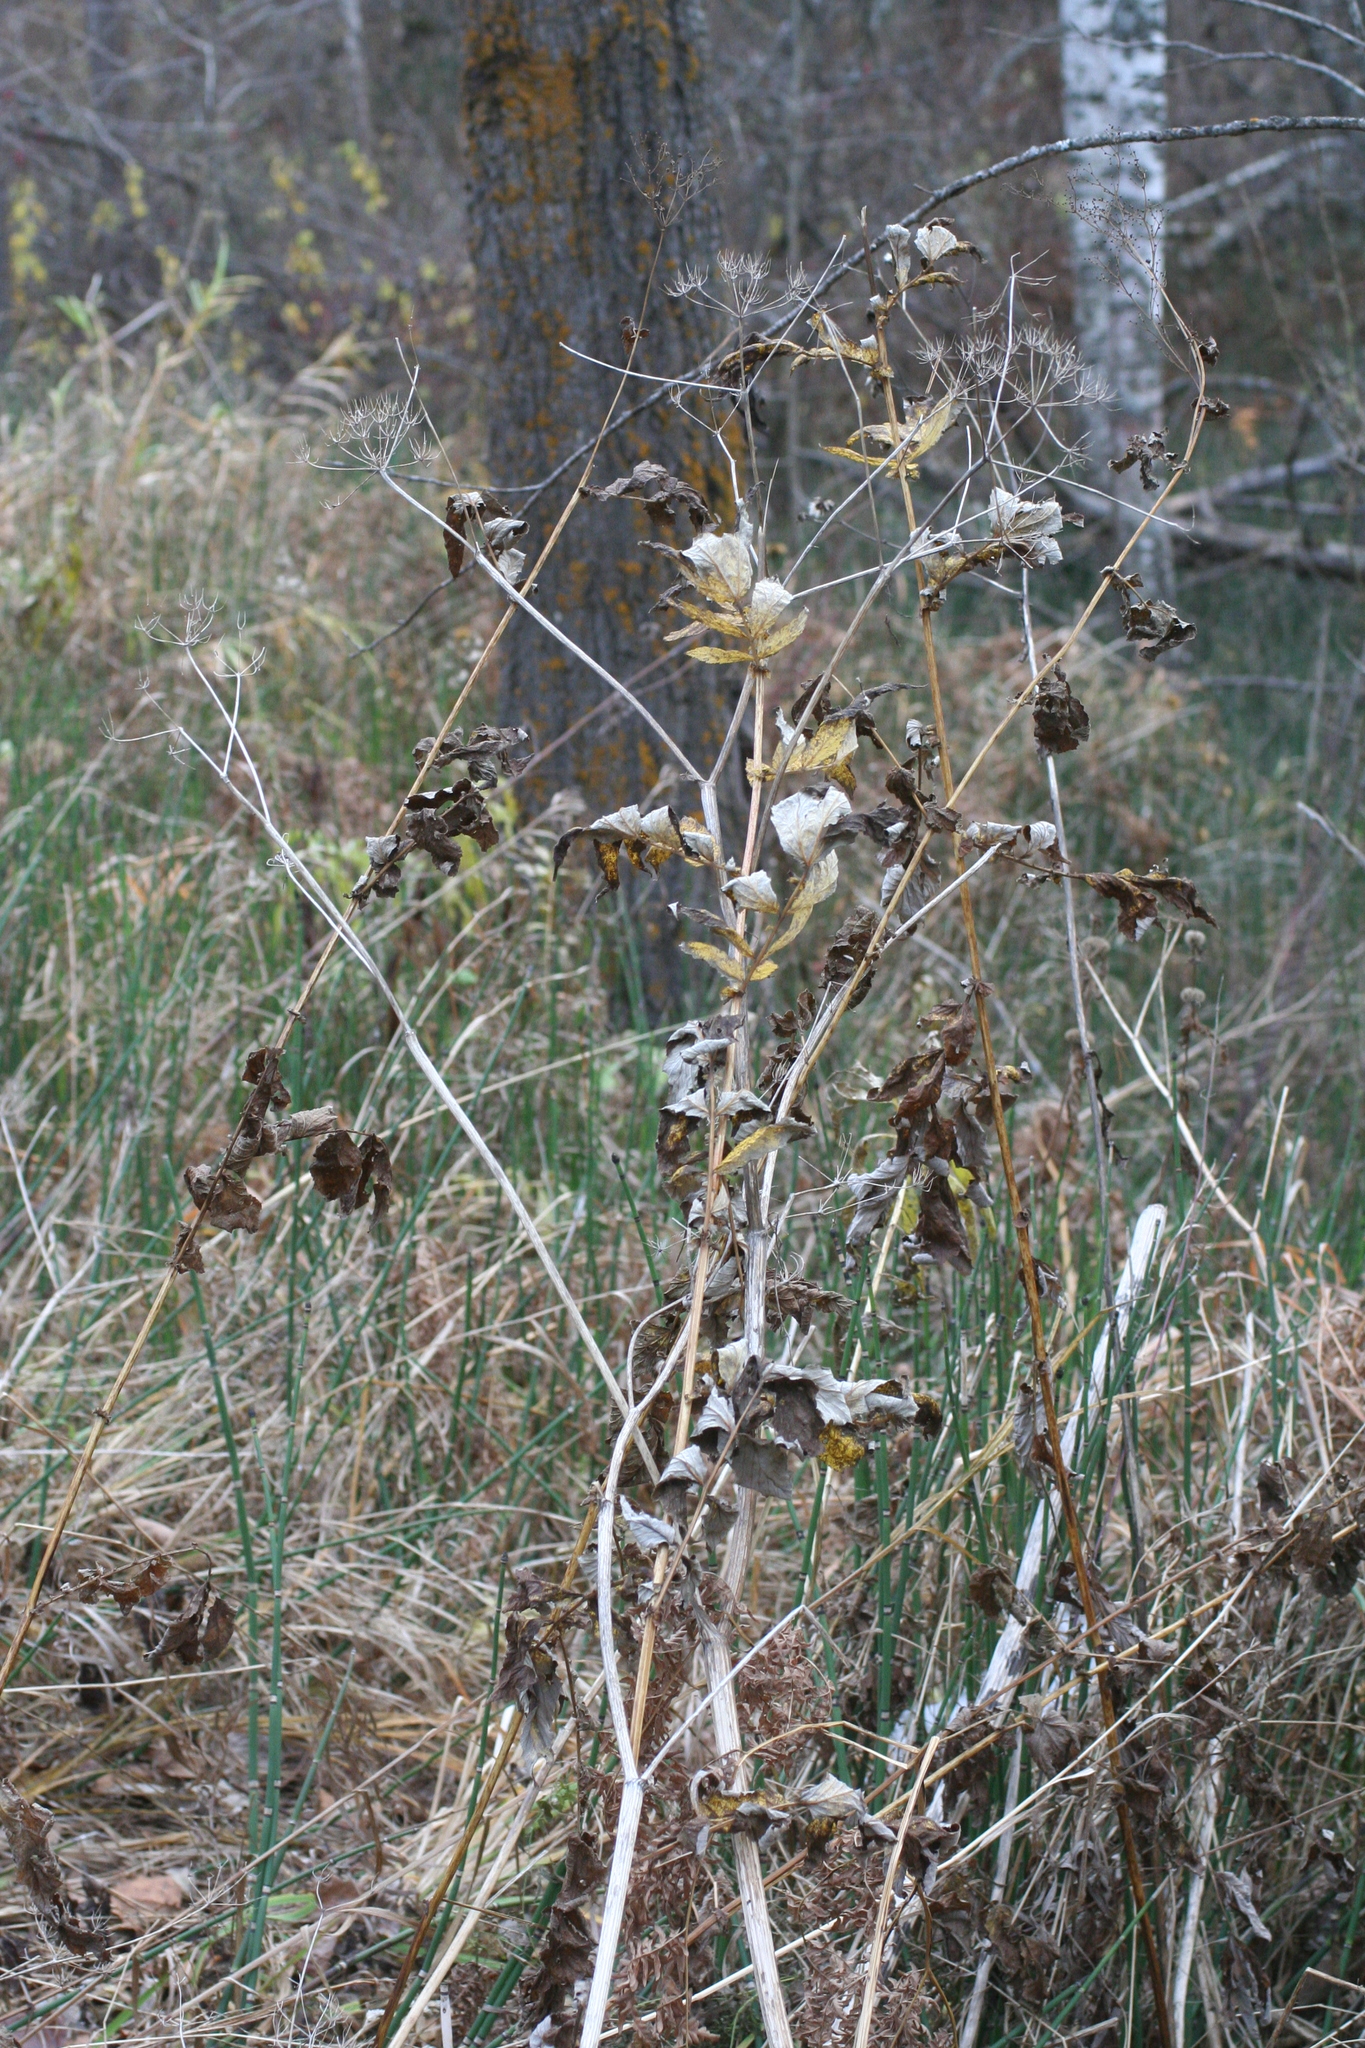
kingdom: Plantae
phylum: Tracheophyta
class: Magnoliopsida
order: Apiales
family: Apiaceae
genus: Pastinaca
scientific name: Pastinaca sativa
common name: Wild parsnip
